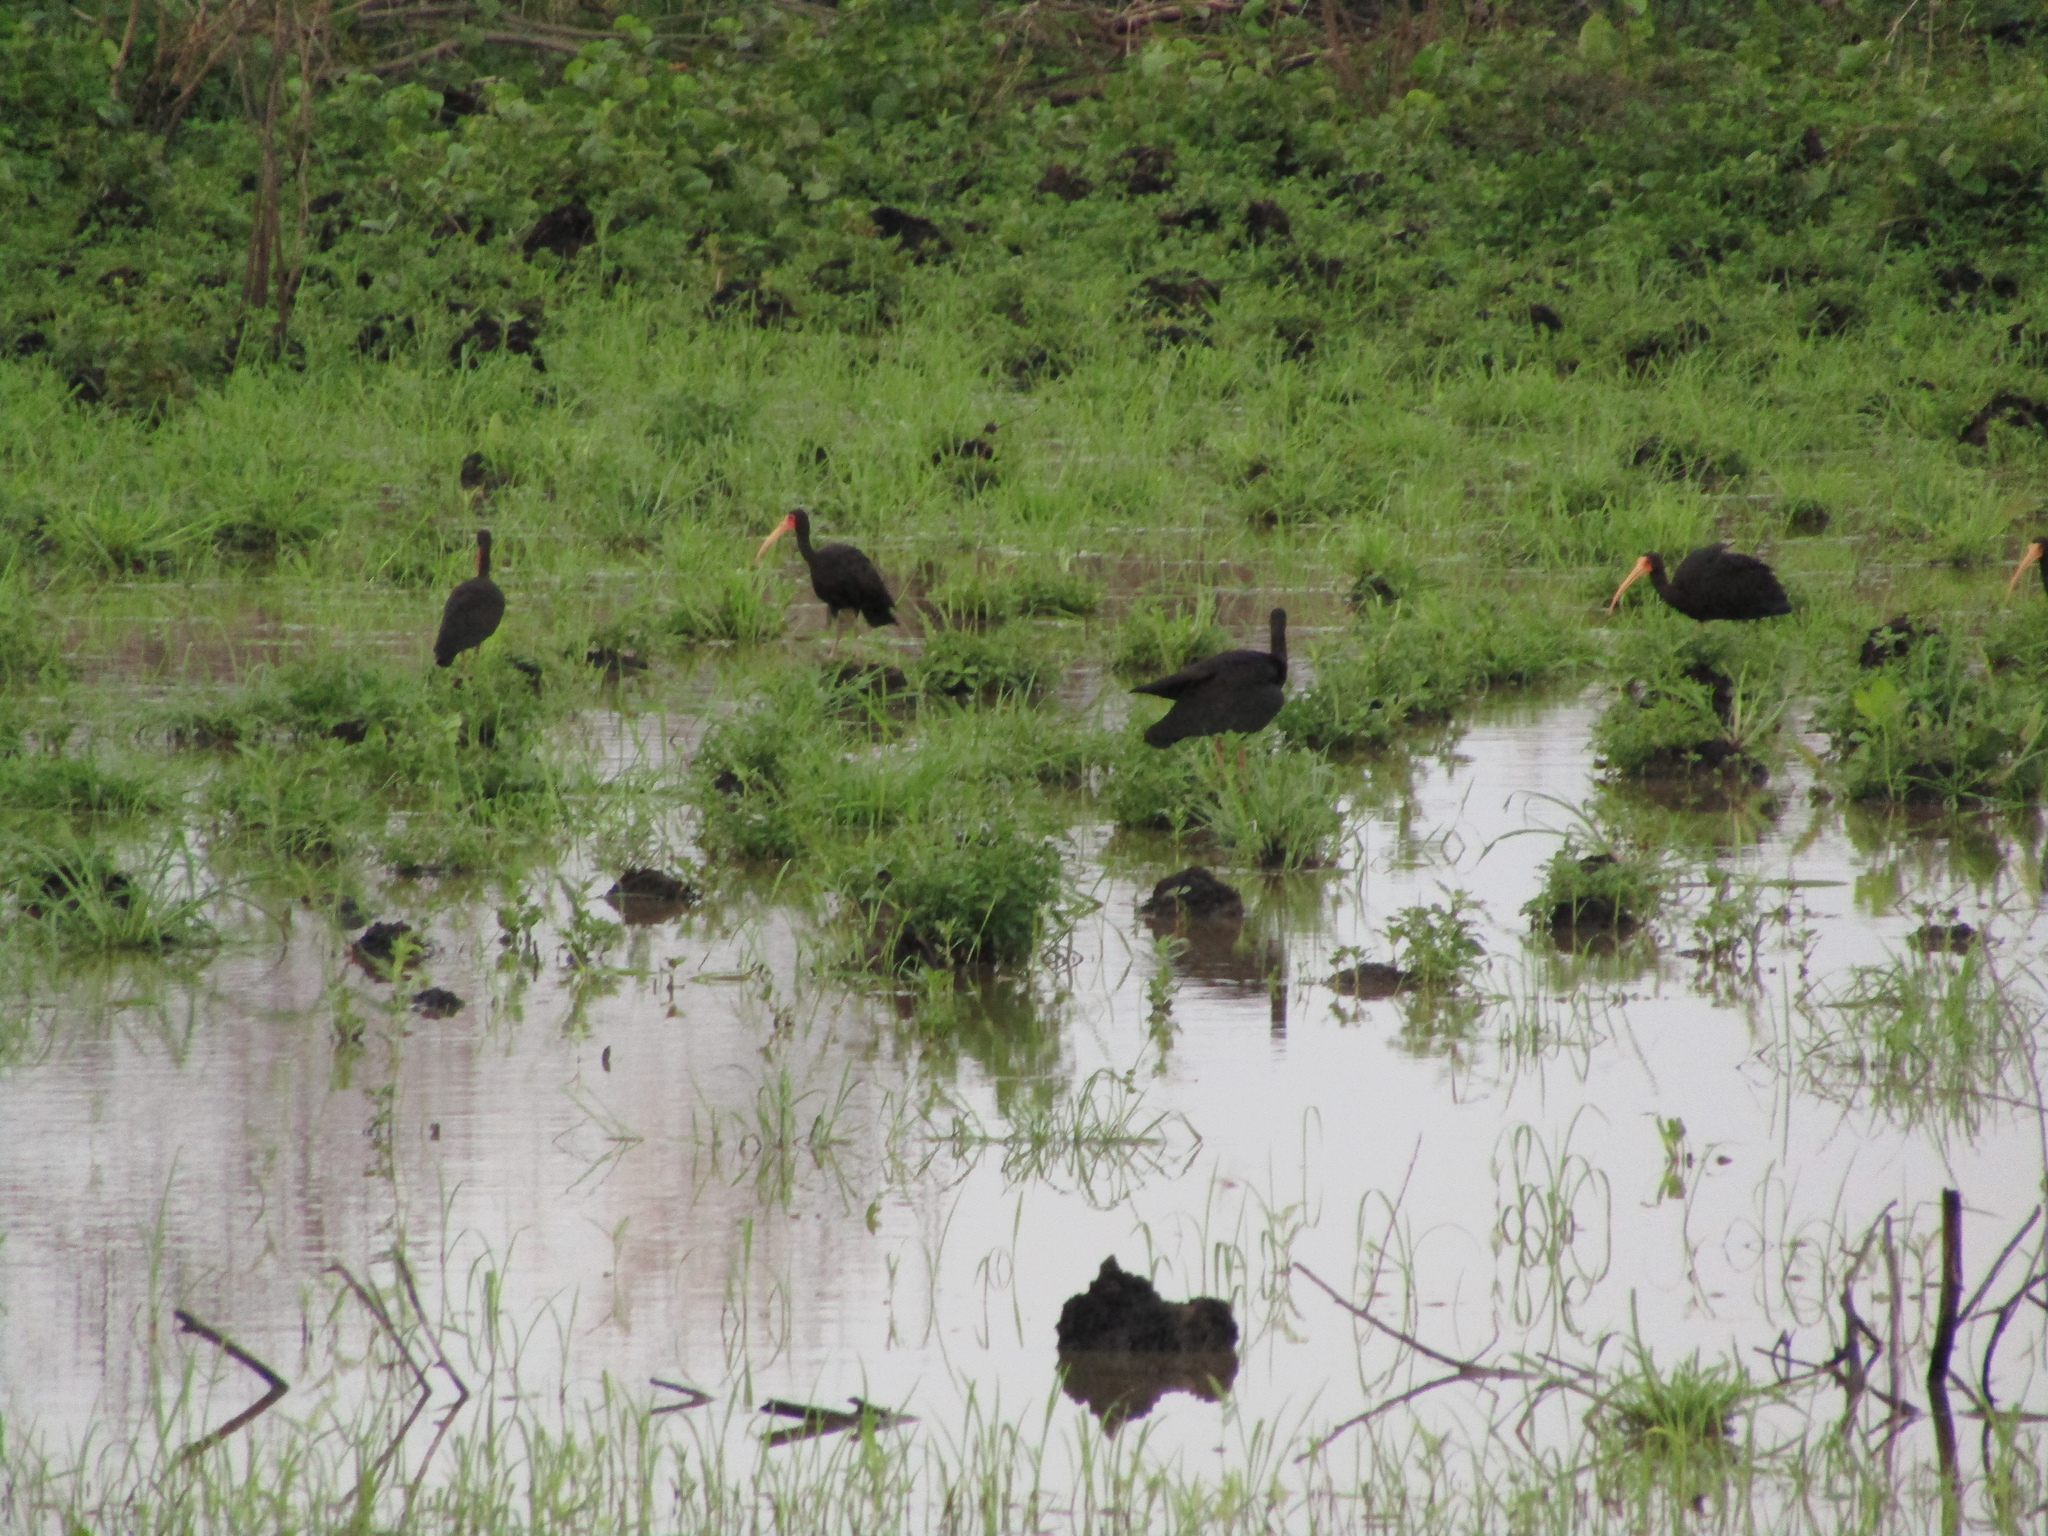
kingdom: Animalia
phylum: Chordata
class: Aves
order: Pelecaniformes
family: Threskiornithidae
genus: Phimosus
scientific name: Phimosus infuscatus
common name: Bare-faced ibis
